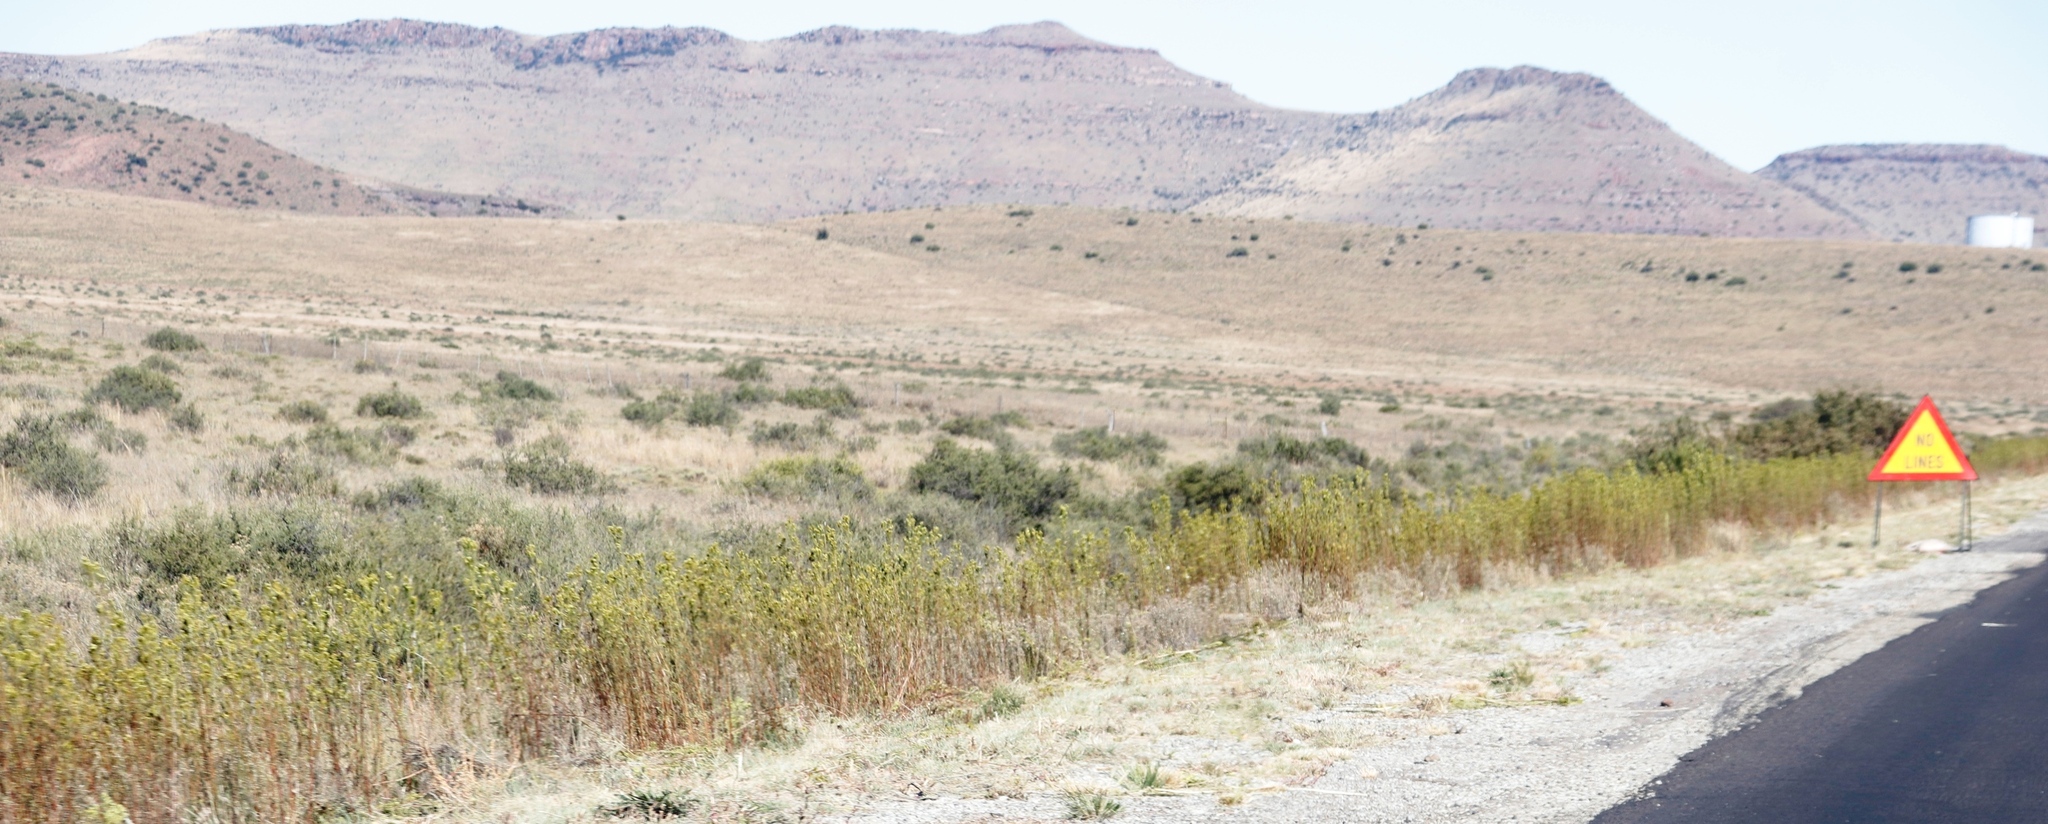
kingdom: Plantae
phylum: Tracheophyta
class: Magnoliopsida
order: Asterales
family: Asteraceae
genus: Tagetes
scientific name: Tagetes minuta
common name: Muster john henry
